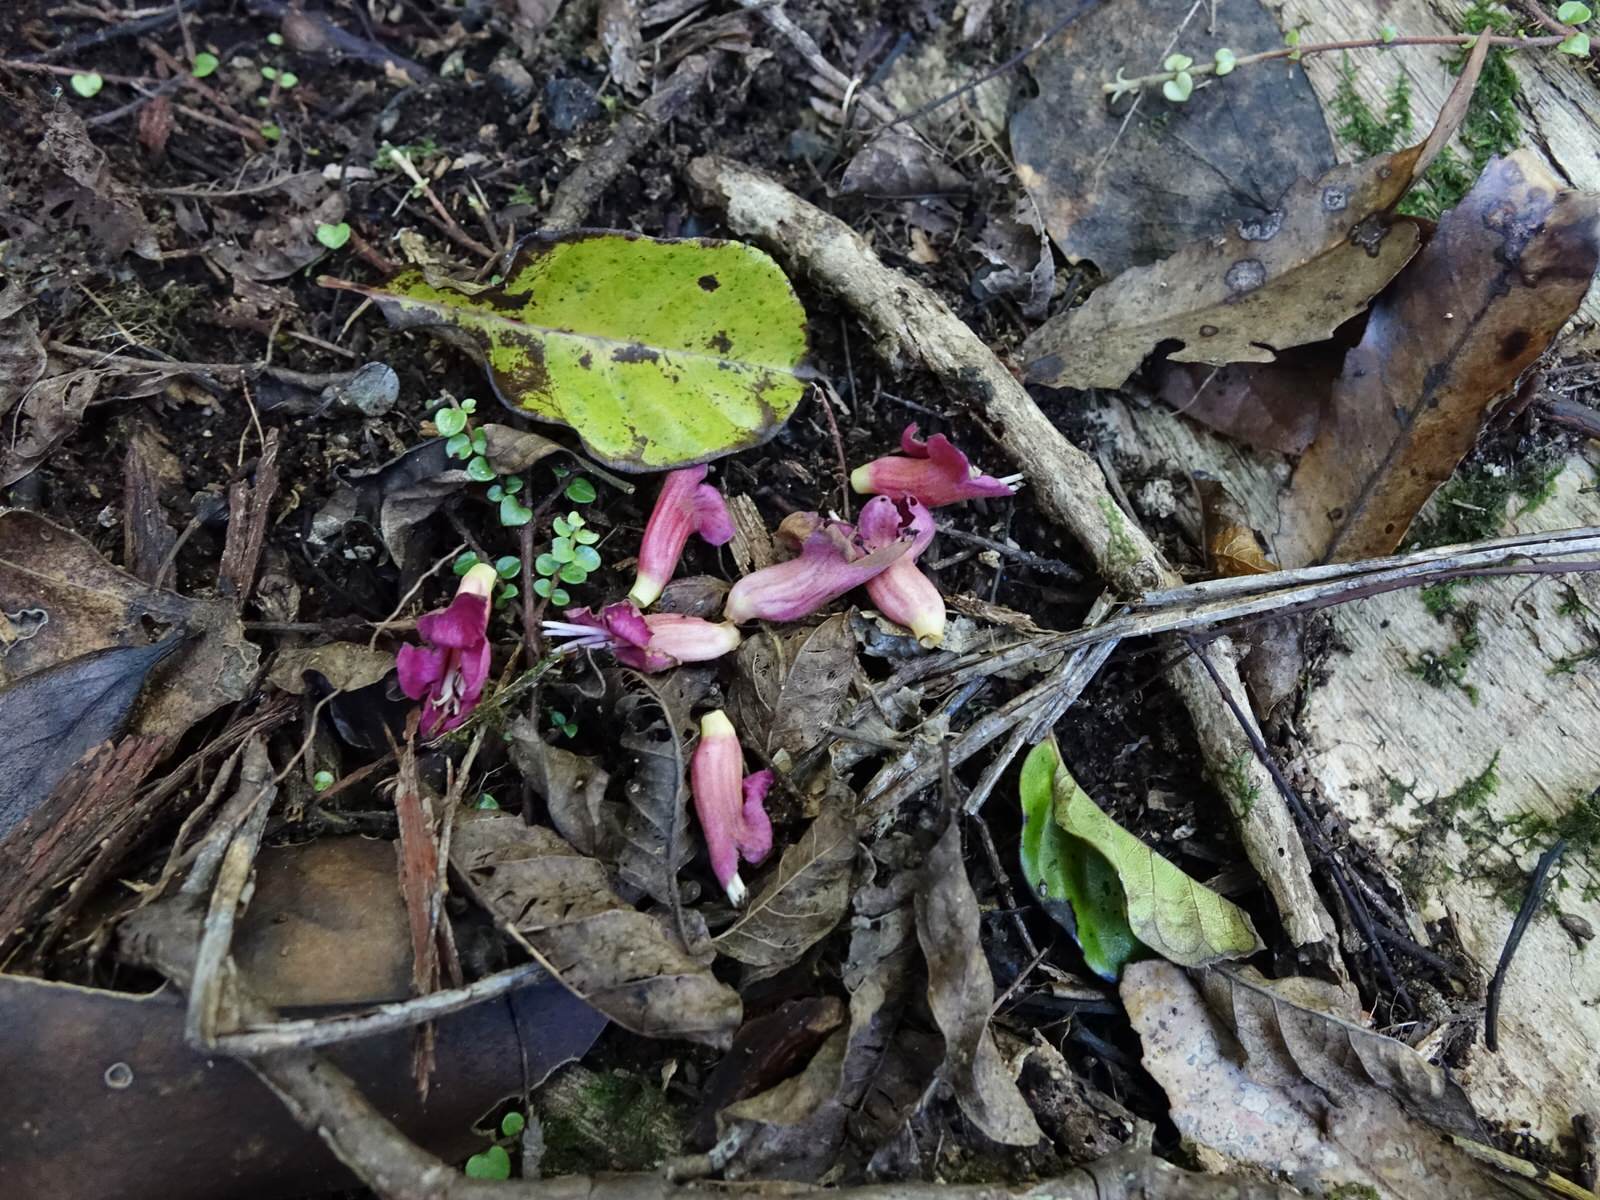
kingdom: Plantae
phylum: Tracheophyta
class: Magnoliopsida
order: Lamiales
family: Lamiaceae
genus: Vitex
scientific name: Vitex lucens
